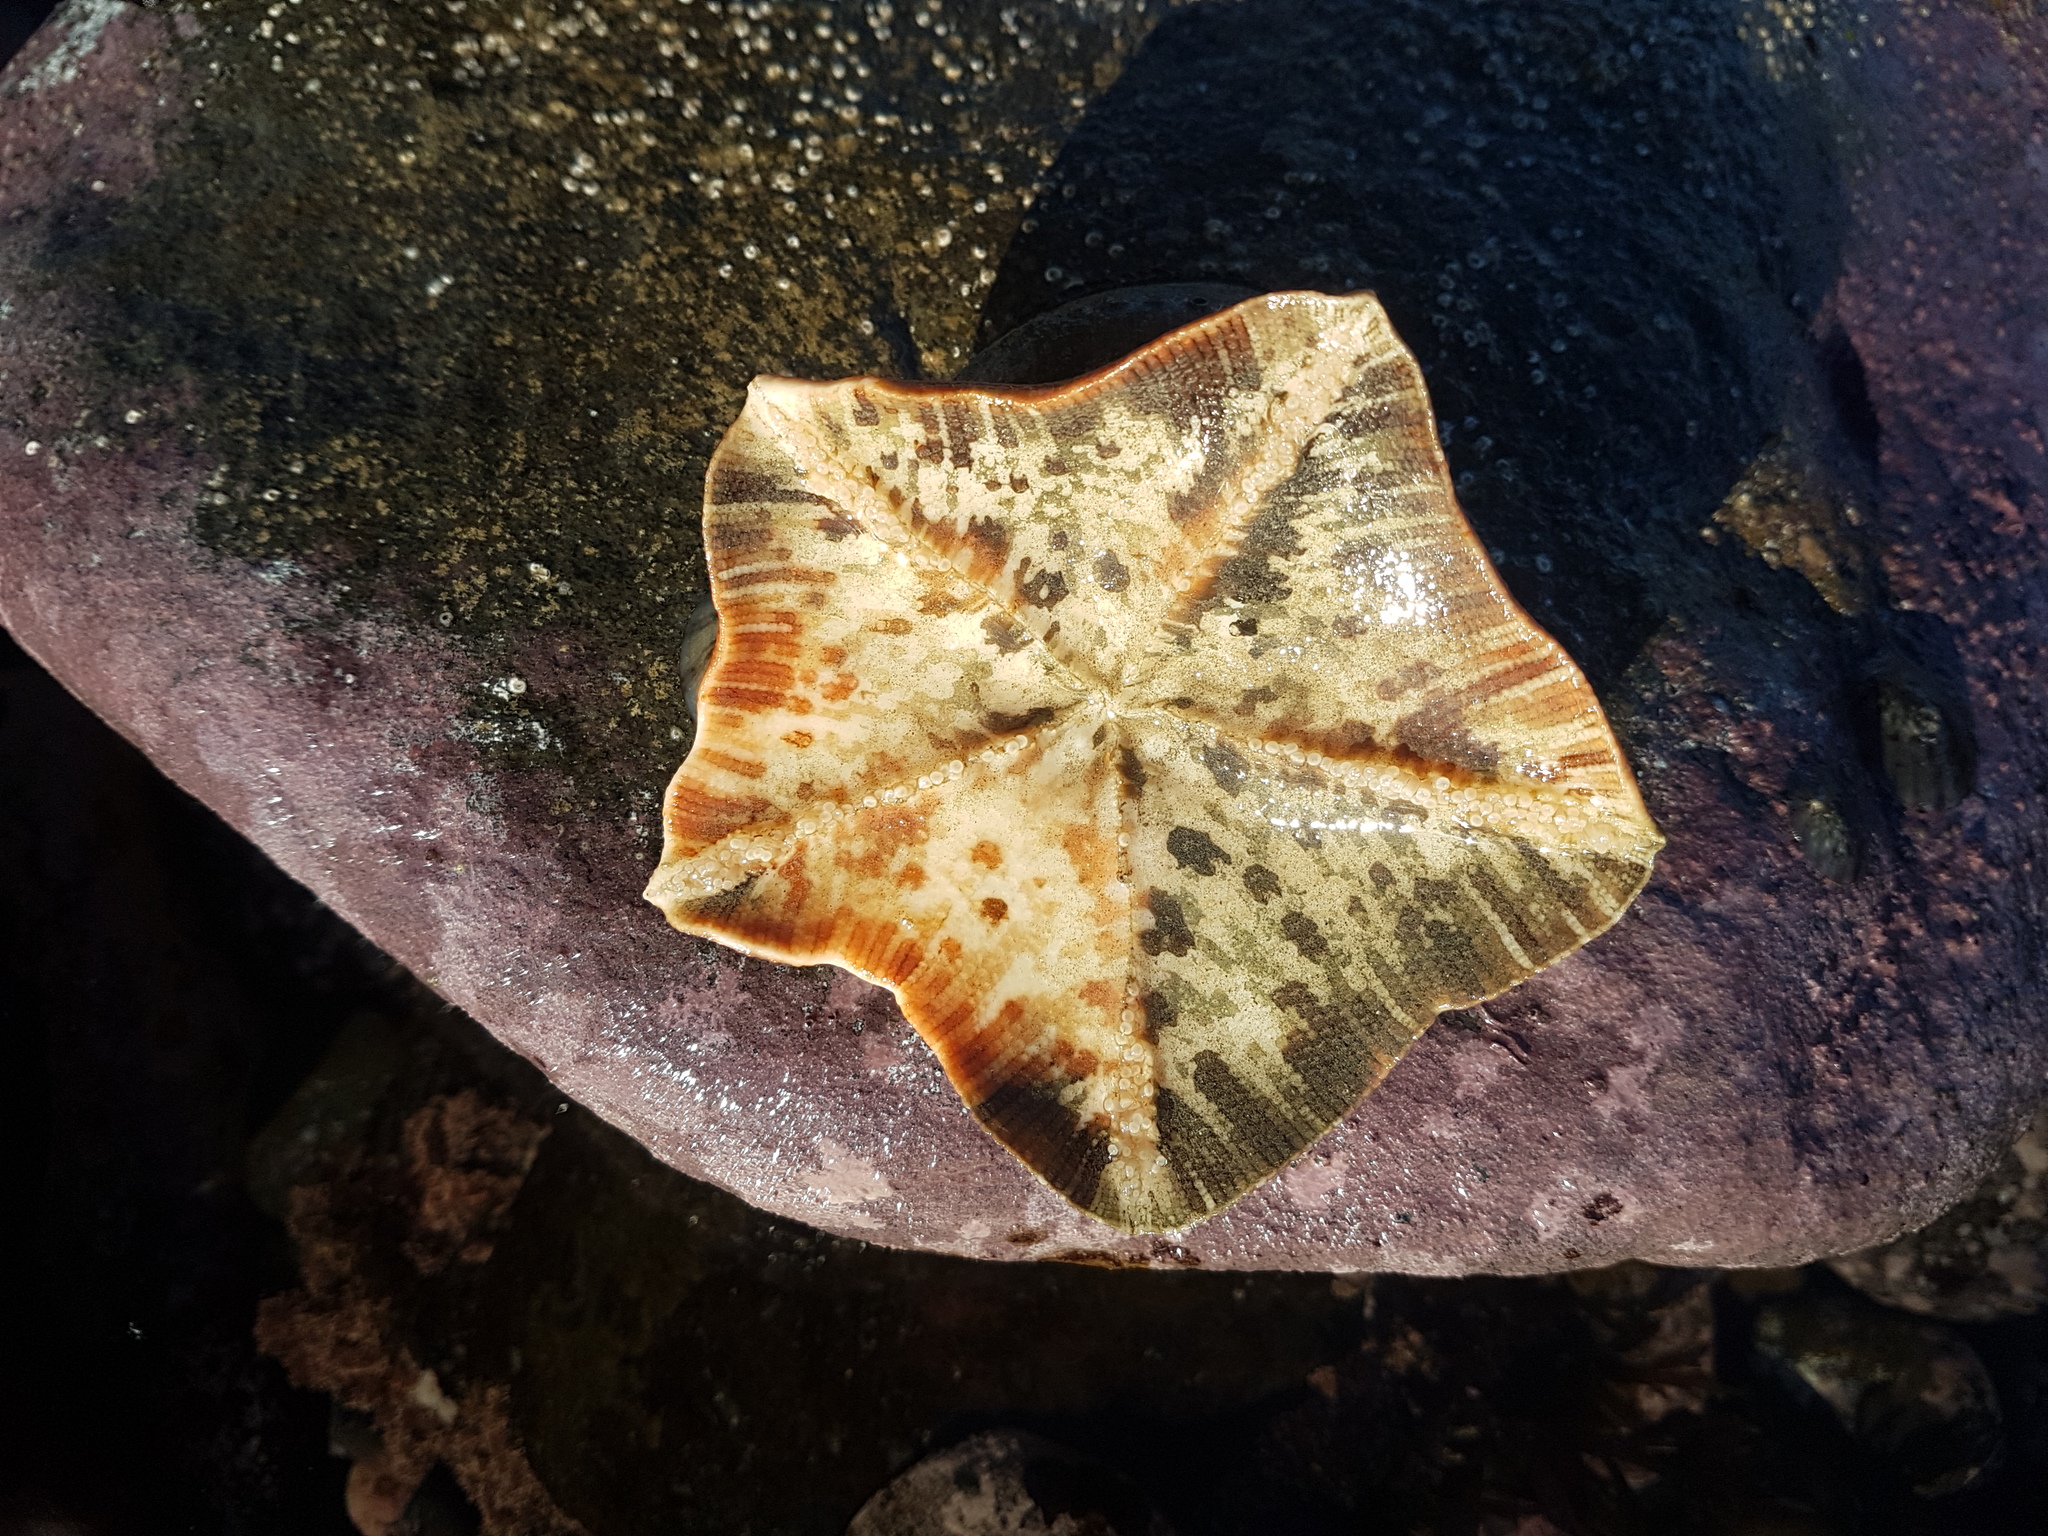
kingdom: Animalia
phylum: Echinodermata
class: Asteroidea
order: Valvatida
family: Asterinidae
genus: Stegnaster
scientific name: Stegnaster inflatus
